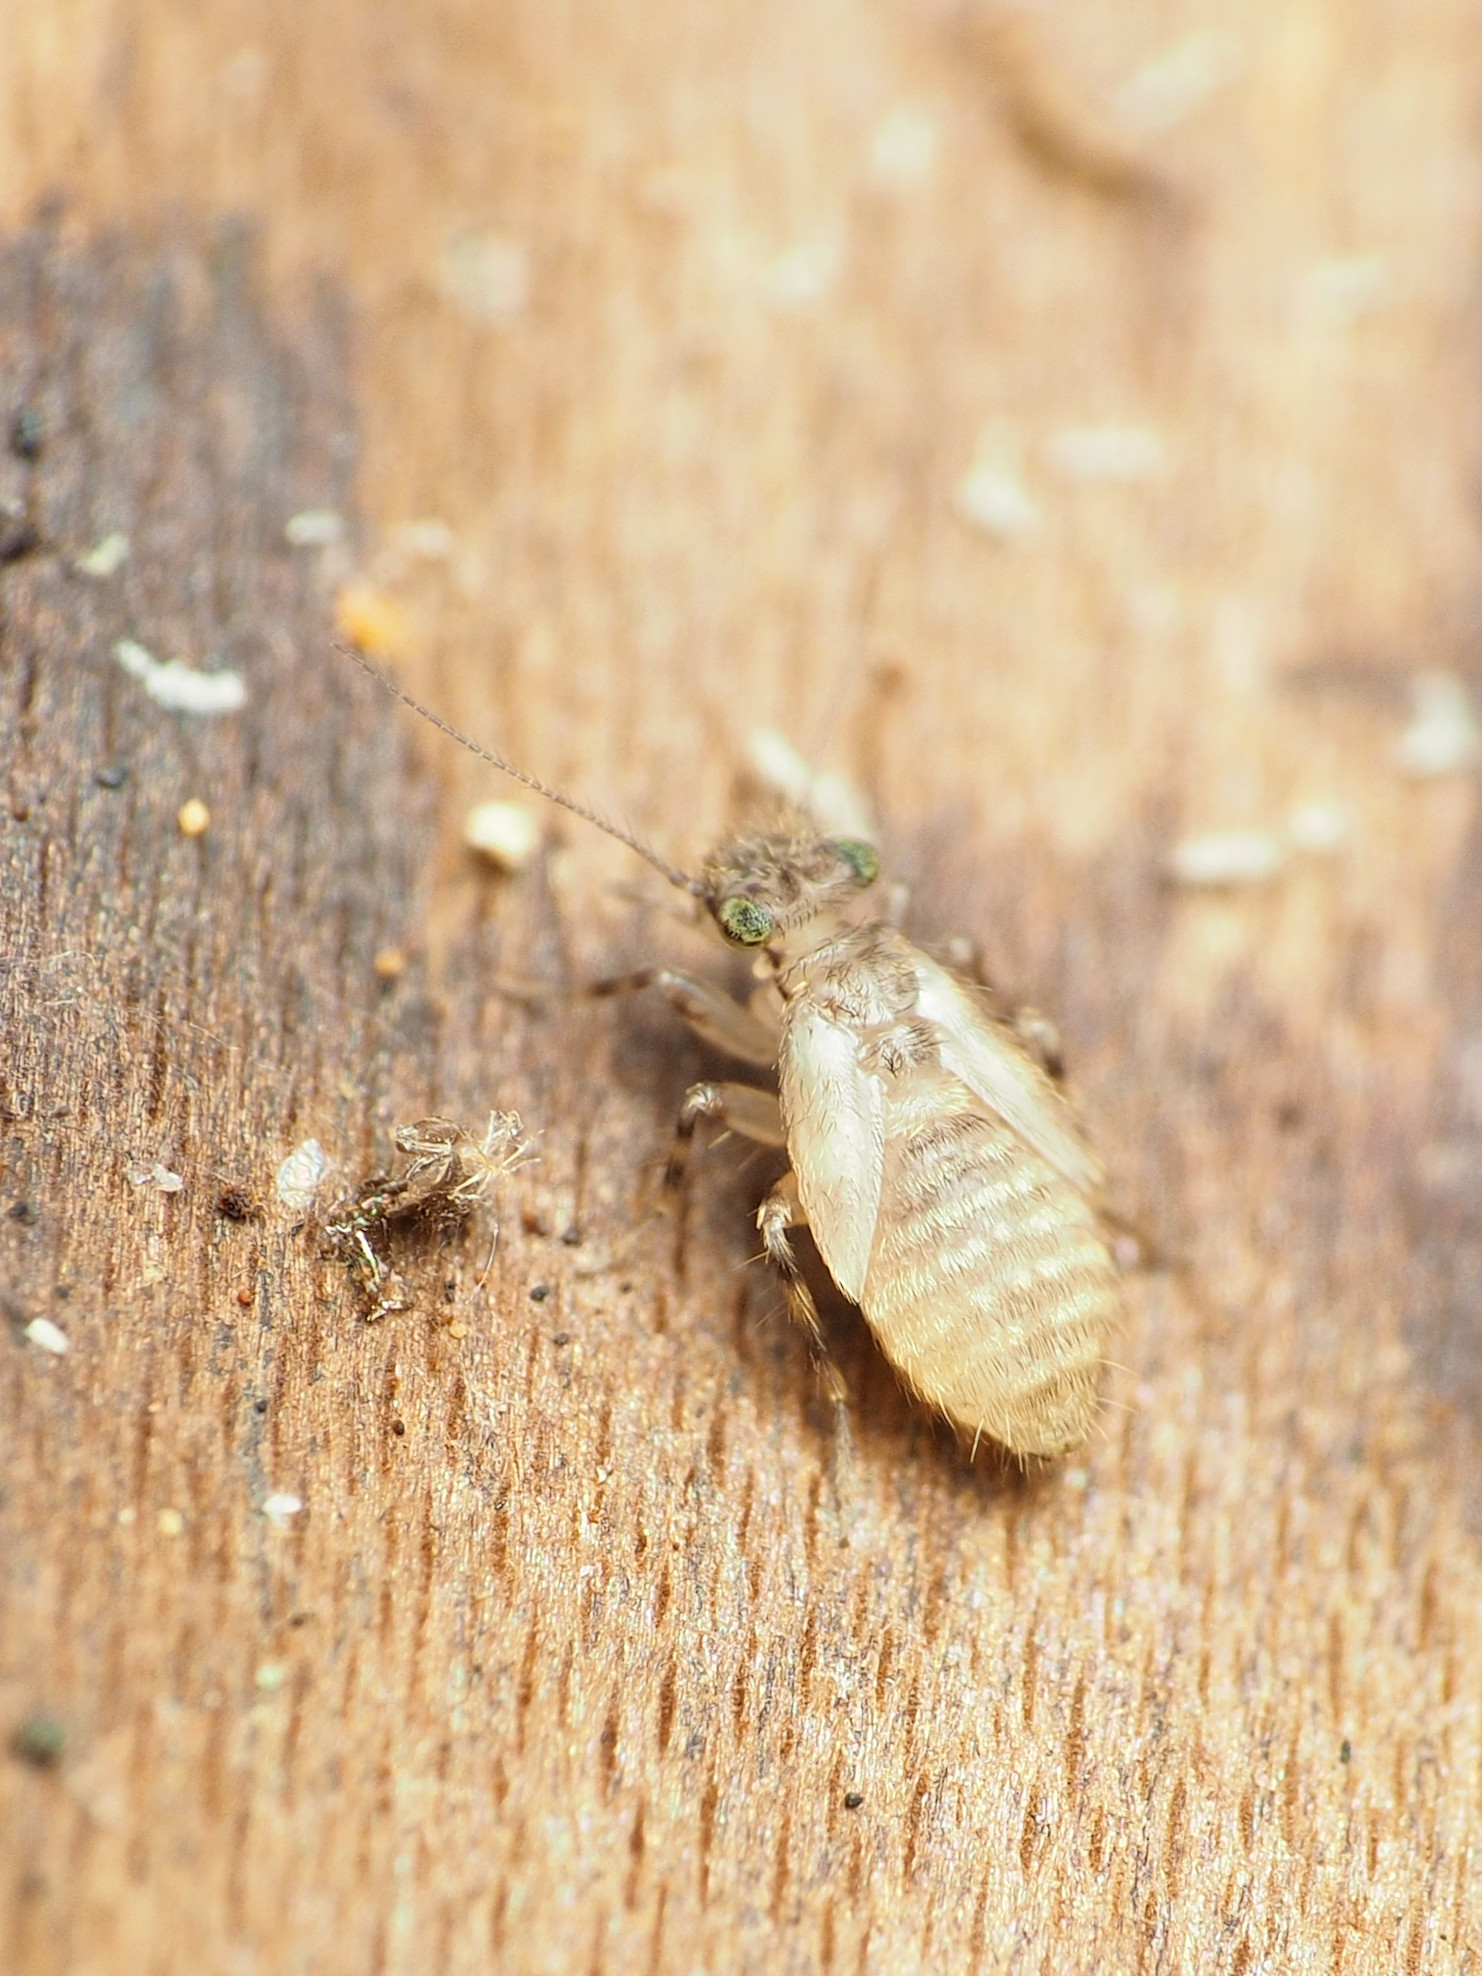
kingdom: Animalia
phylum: Arthropoda
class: Insecta
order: Psocodea
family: Lepidopsocidae
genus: Echmepteryx
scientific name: Echmepteryx hageni
